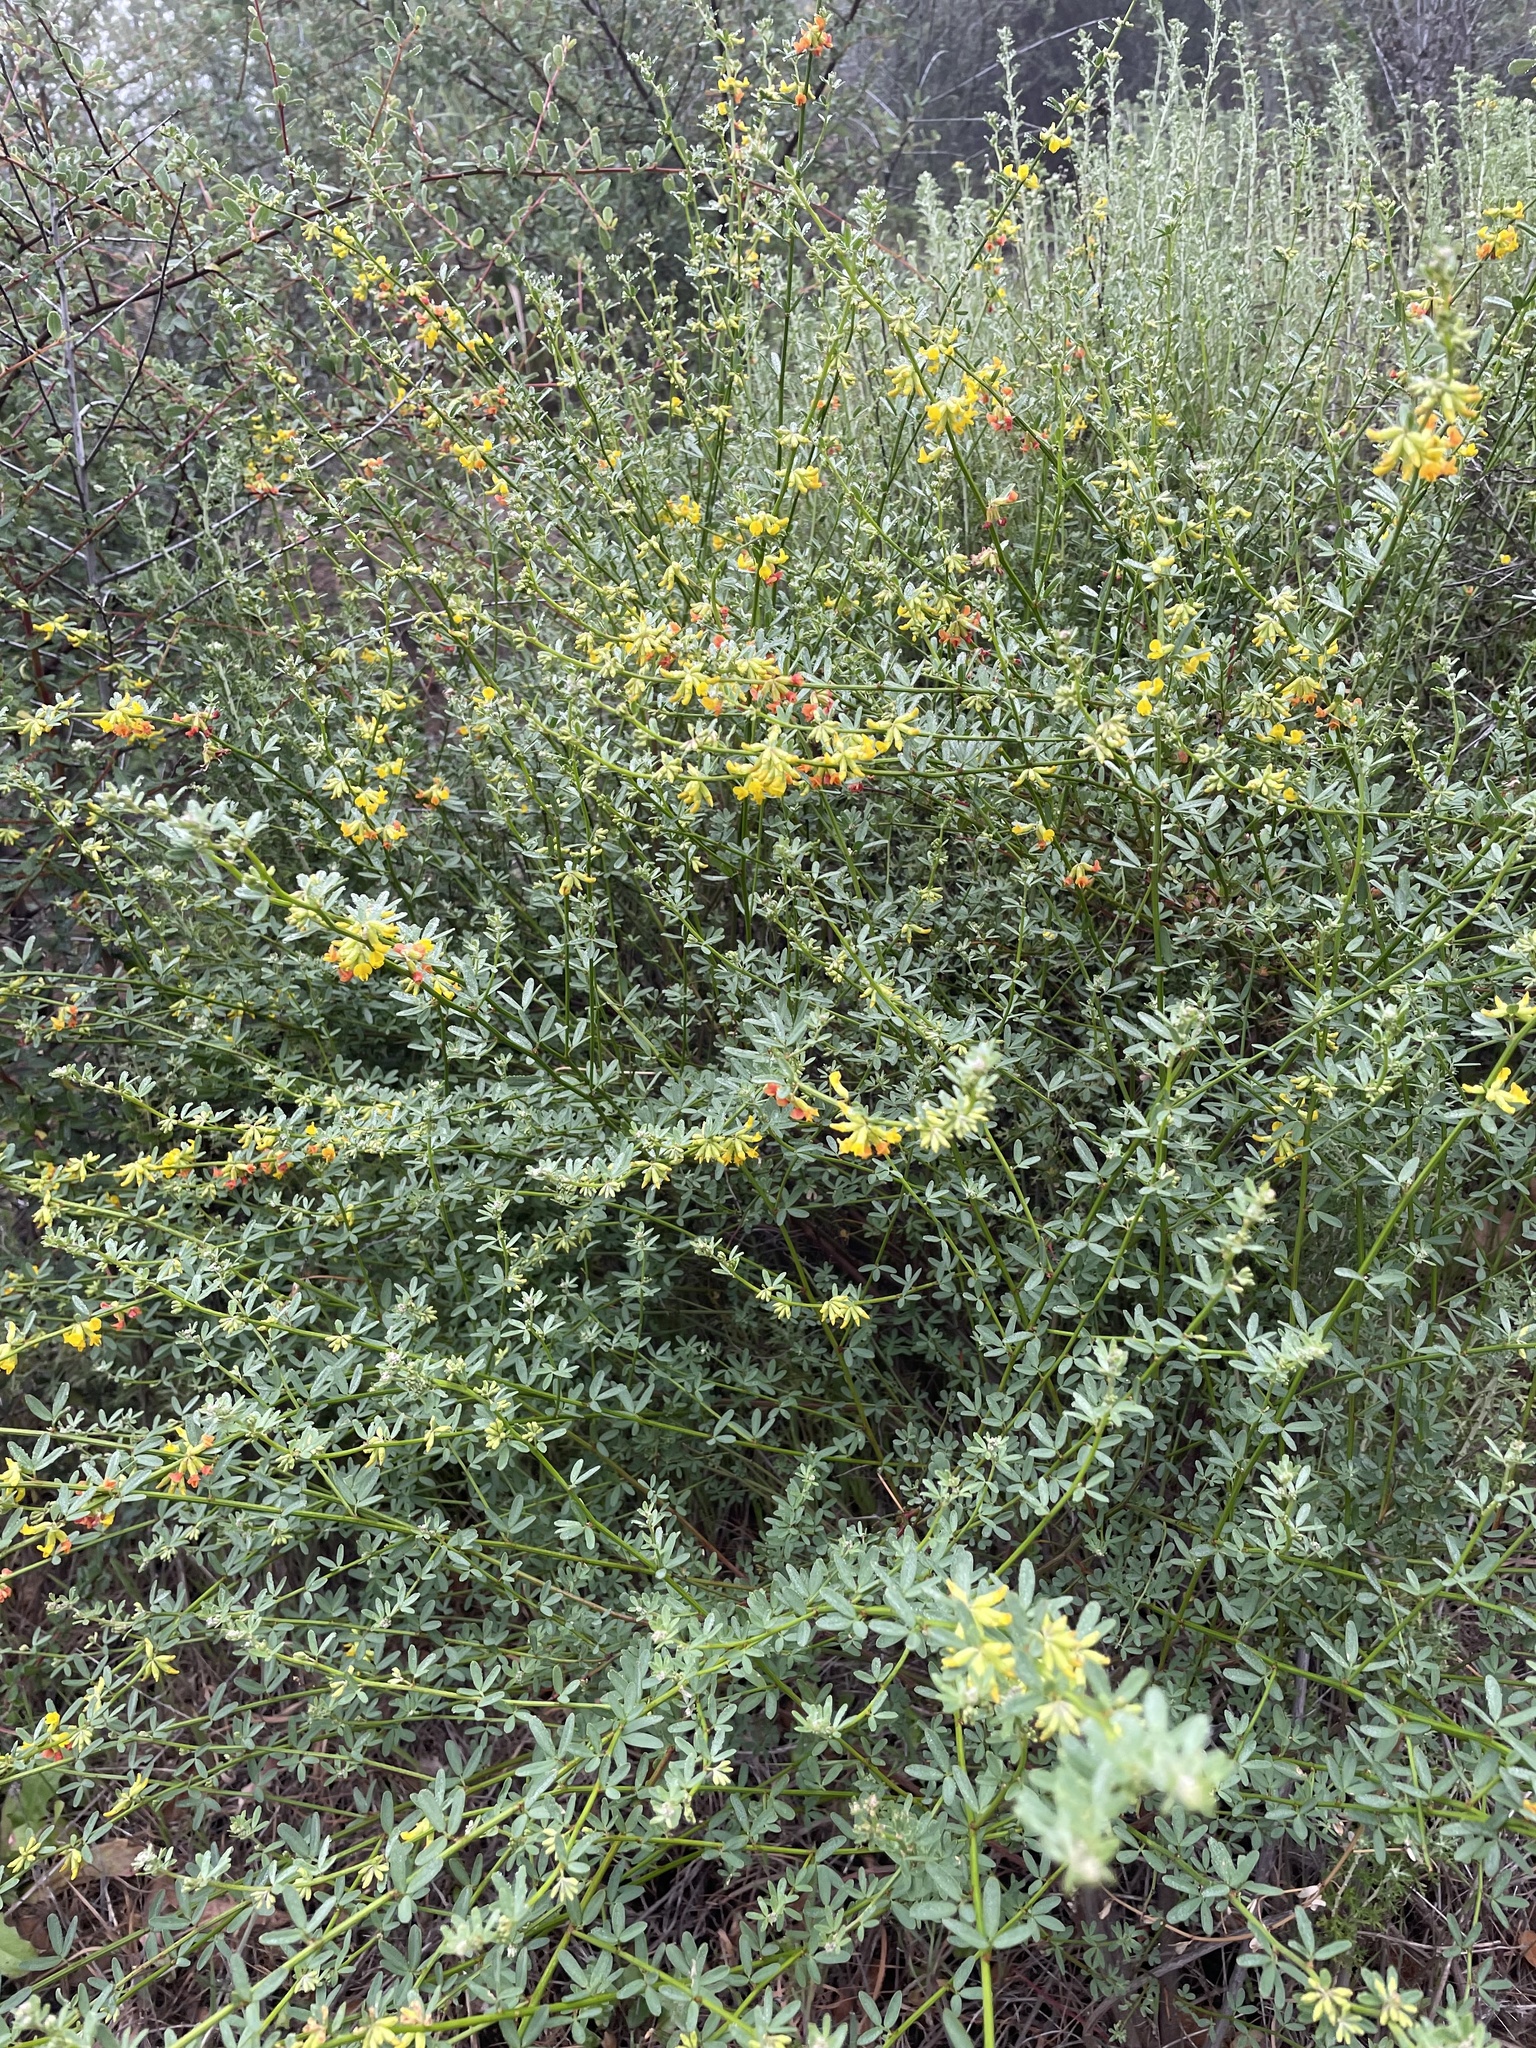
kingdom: Plantae
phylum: Tracheophyta
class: Magnoliopsida
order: Fabales
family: Fabaceae
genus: Acmispon
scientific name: Acmispon glaber
